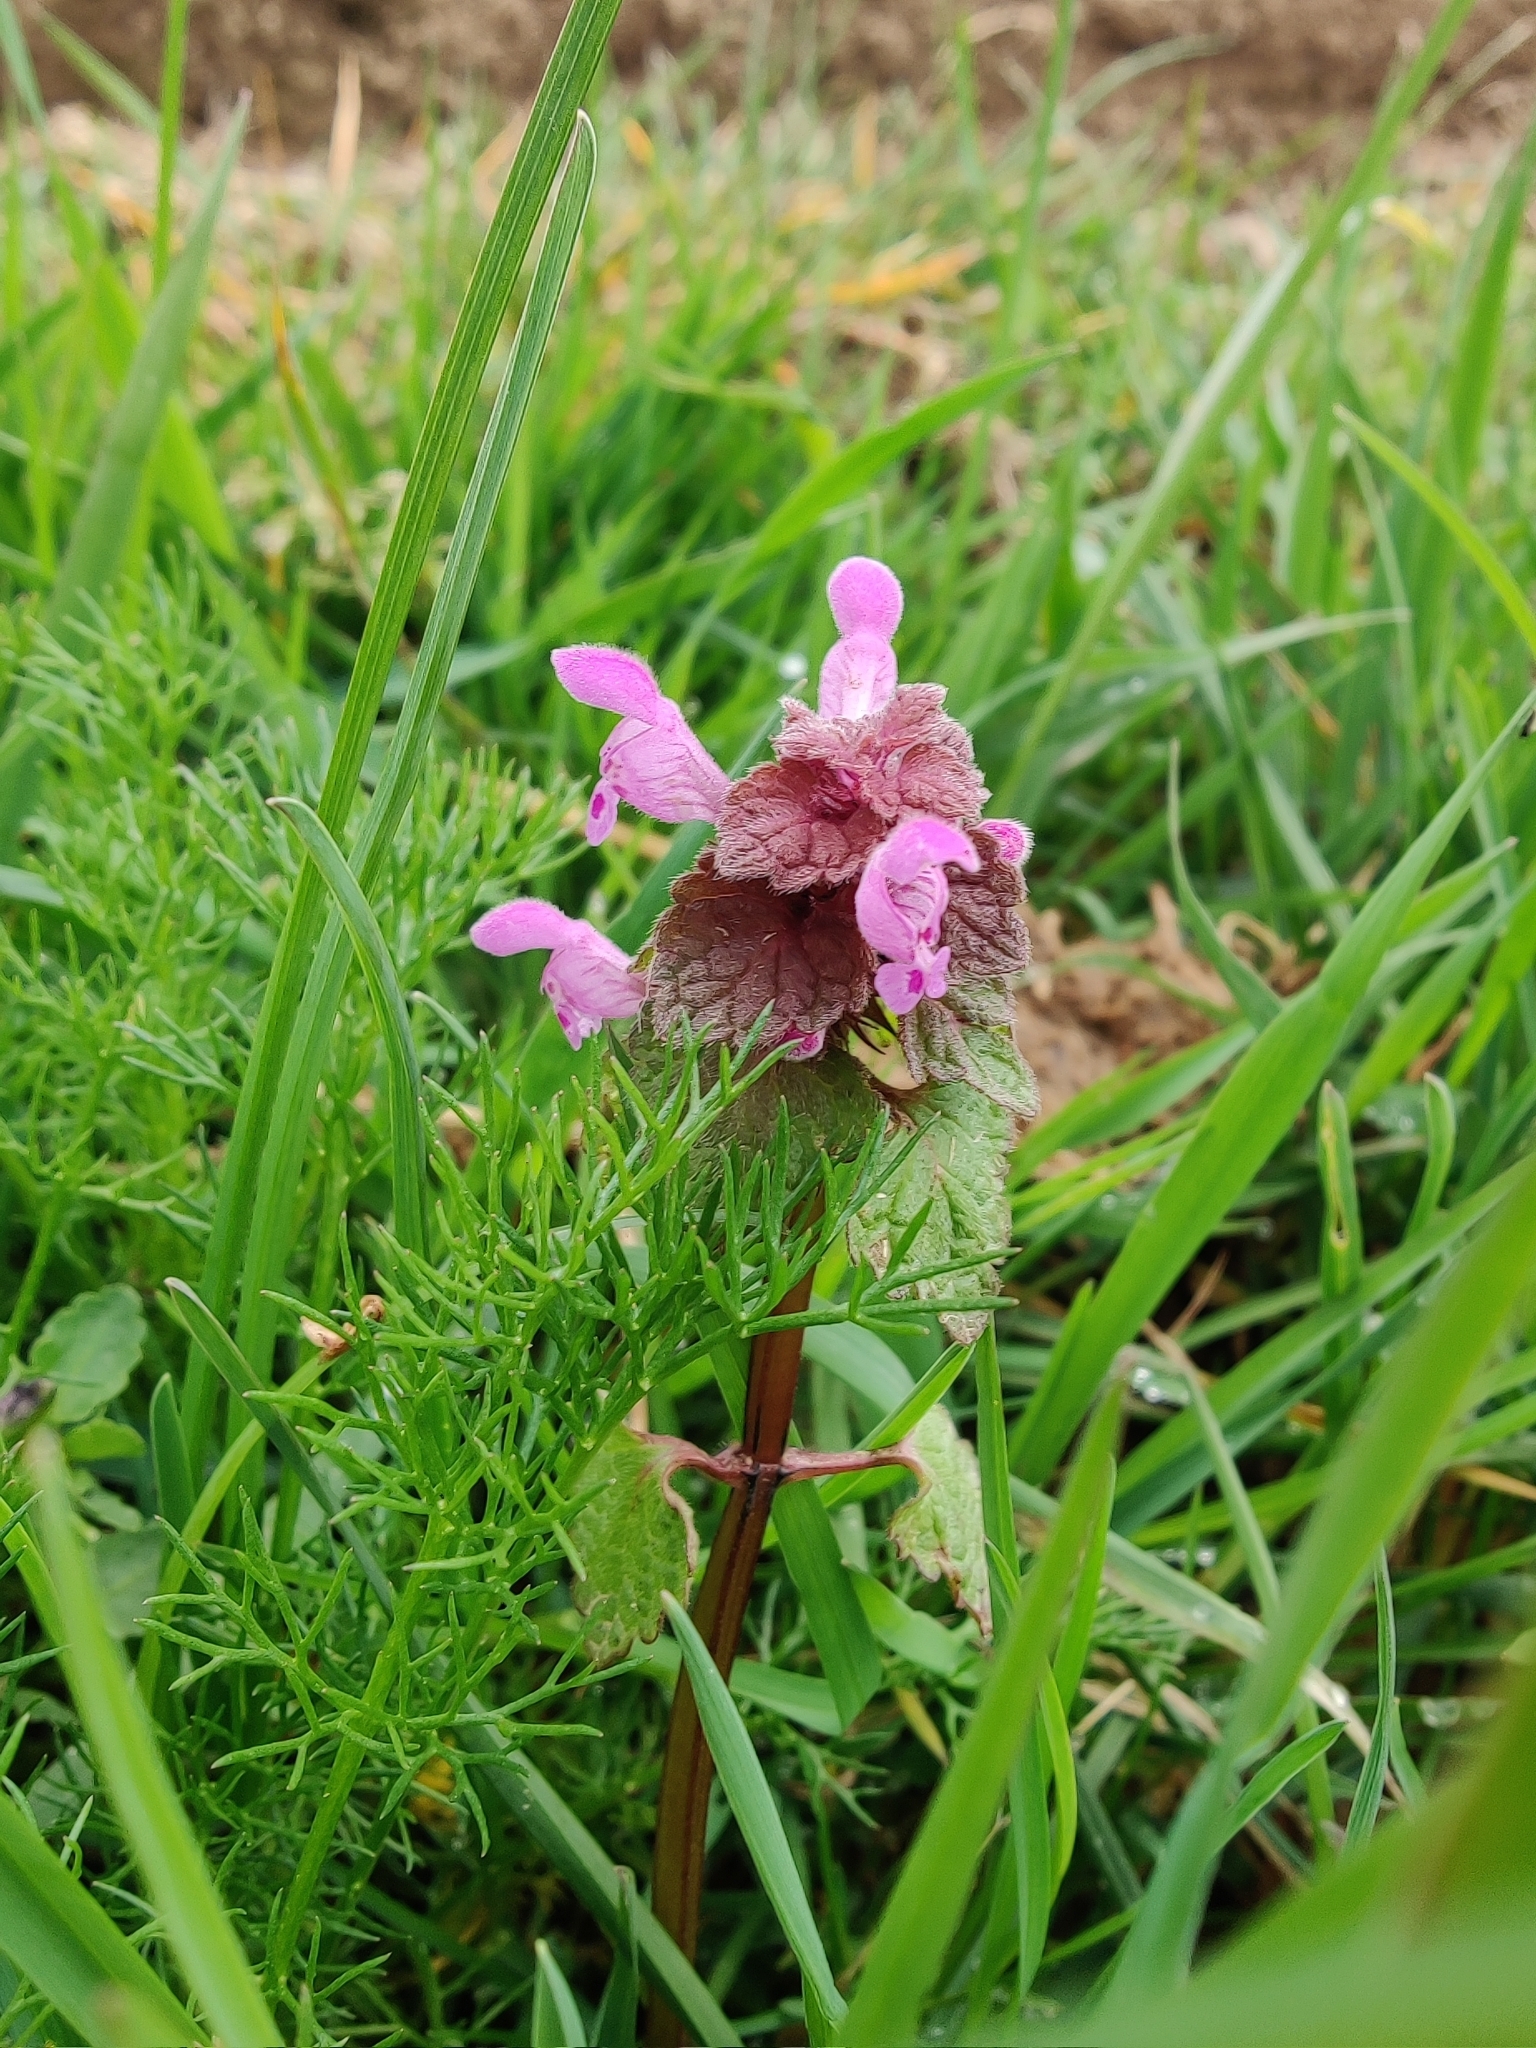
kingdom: Plantae
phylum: Tracheophyta
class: Magnoliopsida
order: Lamiales
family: Lamiaceae
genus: Lamium
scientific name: Lamium purpureum
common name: Red dead-nettle
